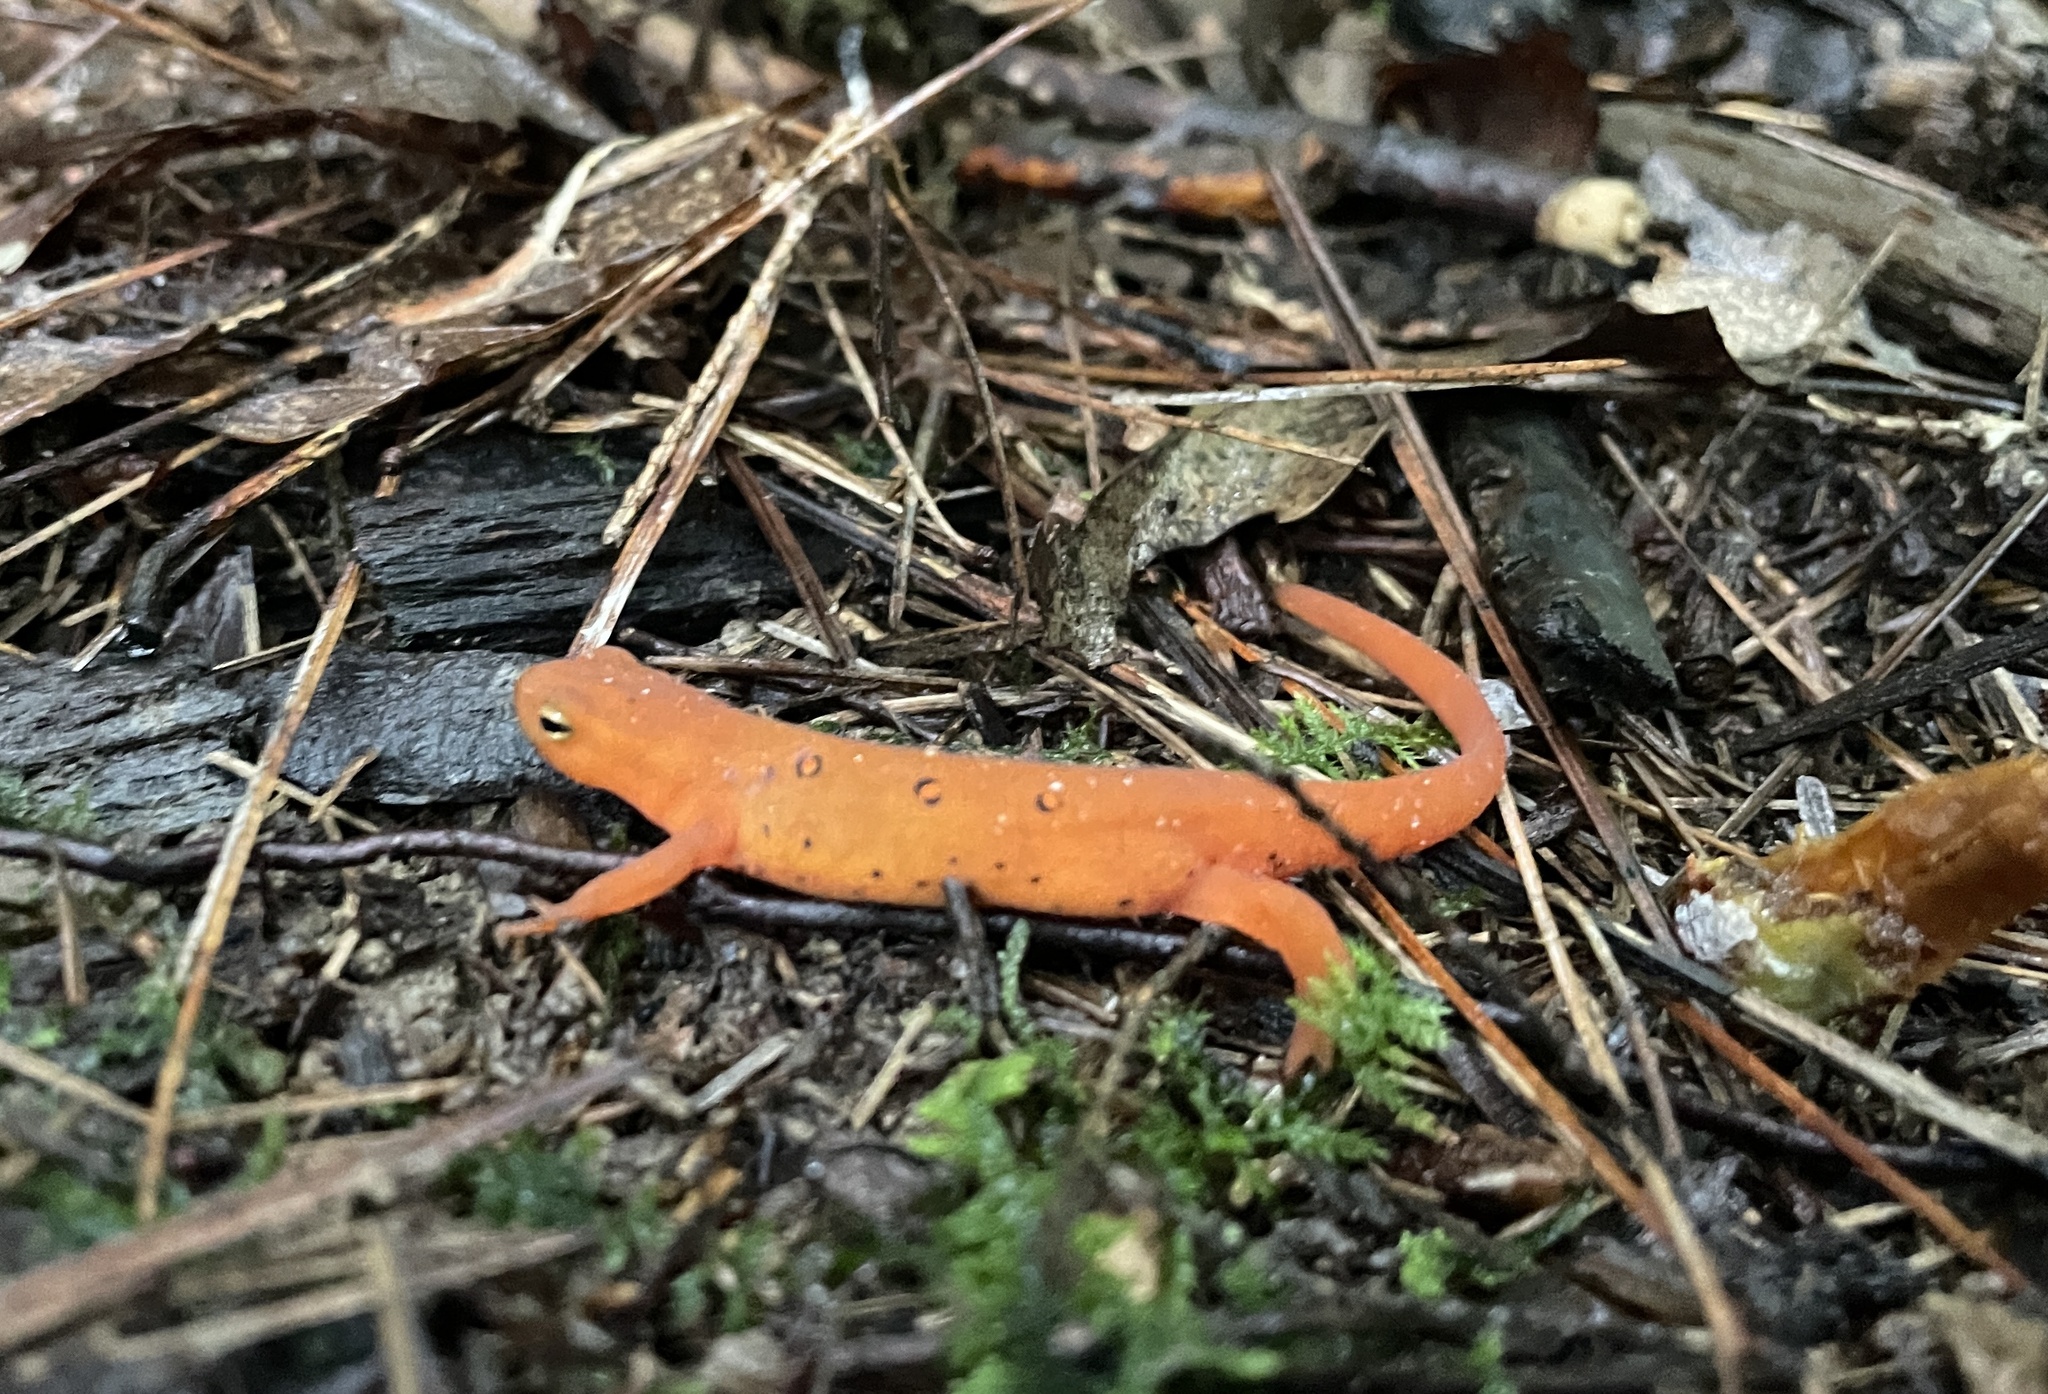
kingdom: Animalia
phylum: Chordata
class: Amphibia
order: Caudata
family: Salamandridae
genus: Notophthalmus
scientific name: Notophthalmus viridescens
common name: Eastern newt
